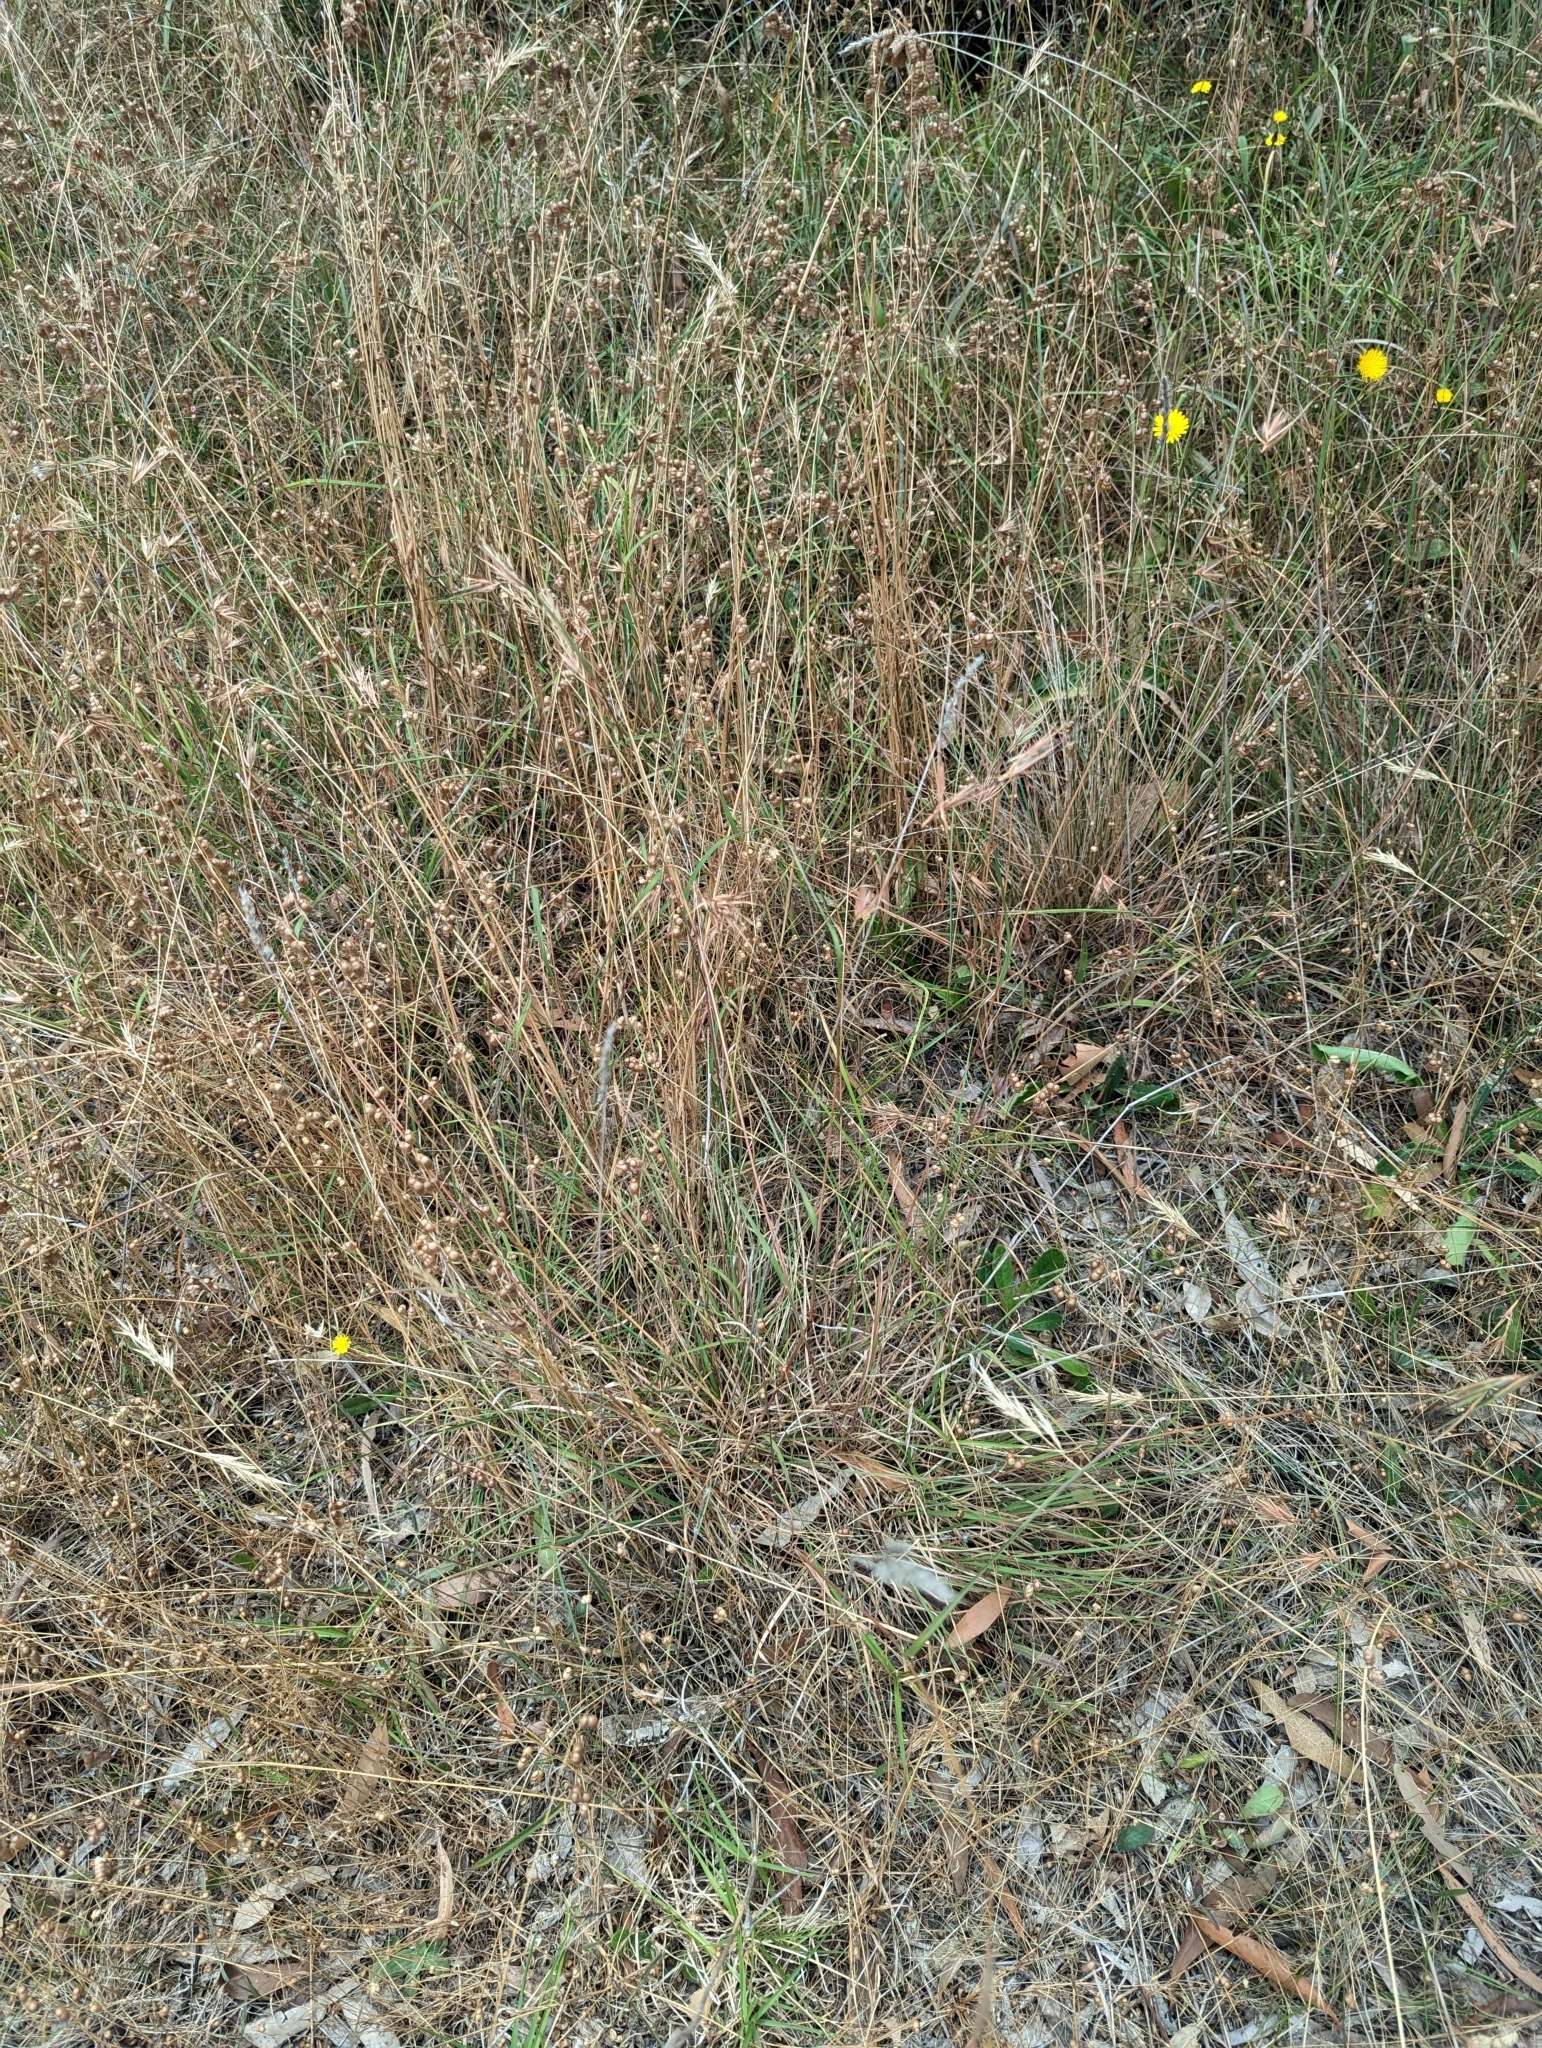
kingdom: Plantae
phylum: Tracheophyta
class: Liliopsida
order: Poales
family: Poaceae
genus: Themeda
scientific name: Themeda triandra
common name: Kangaroo grass
